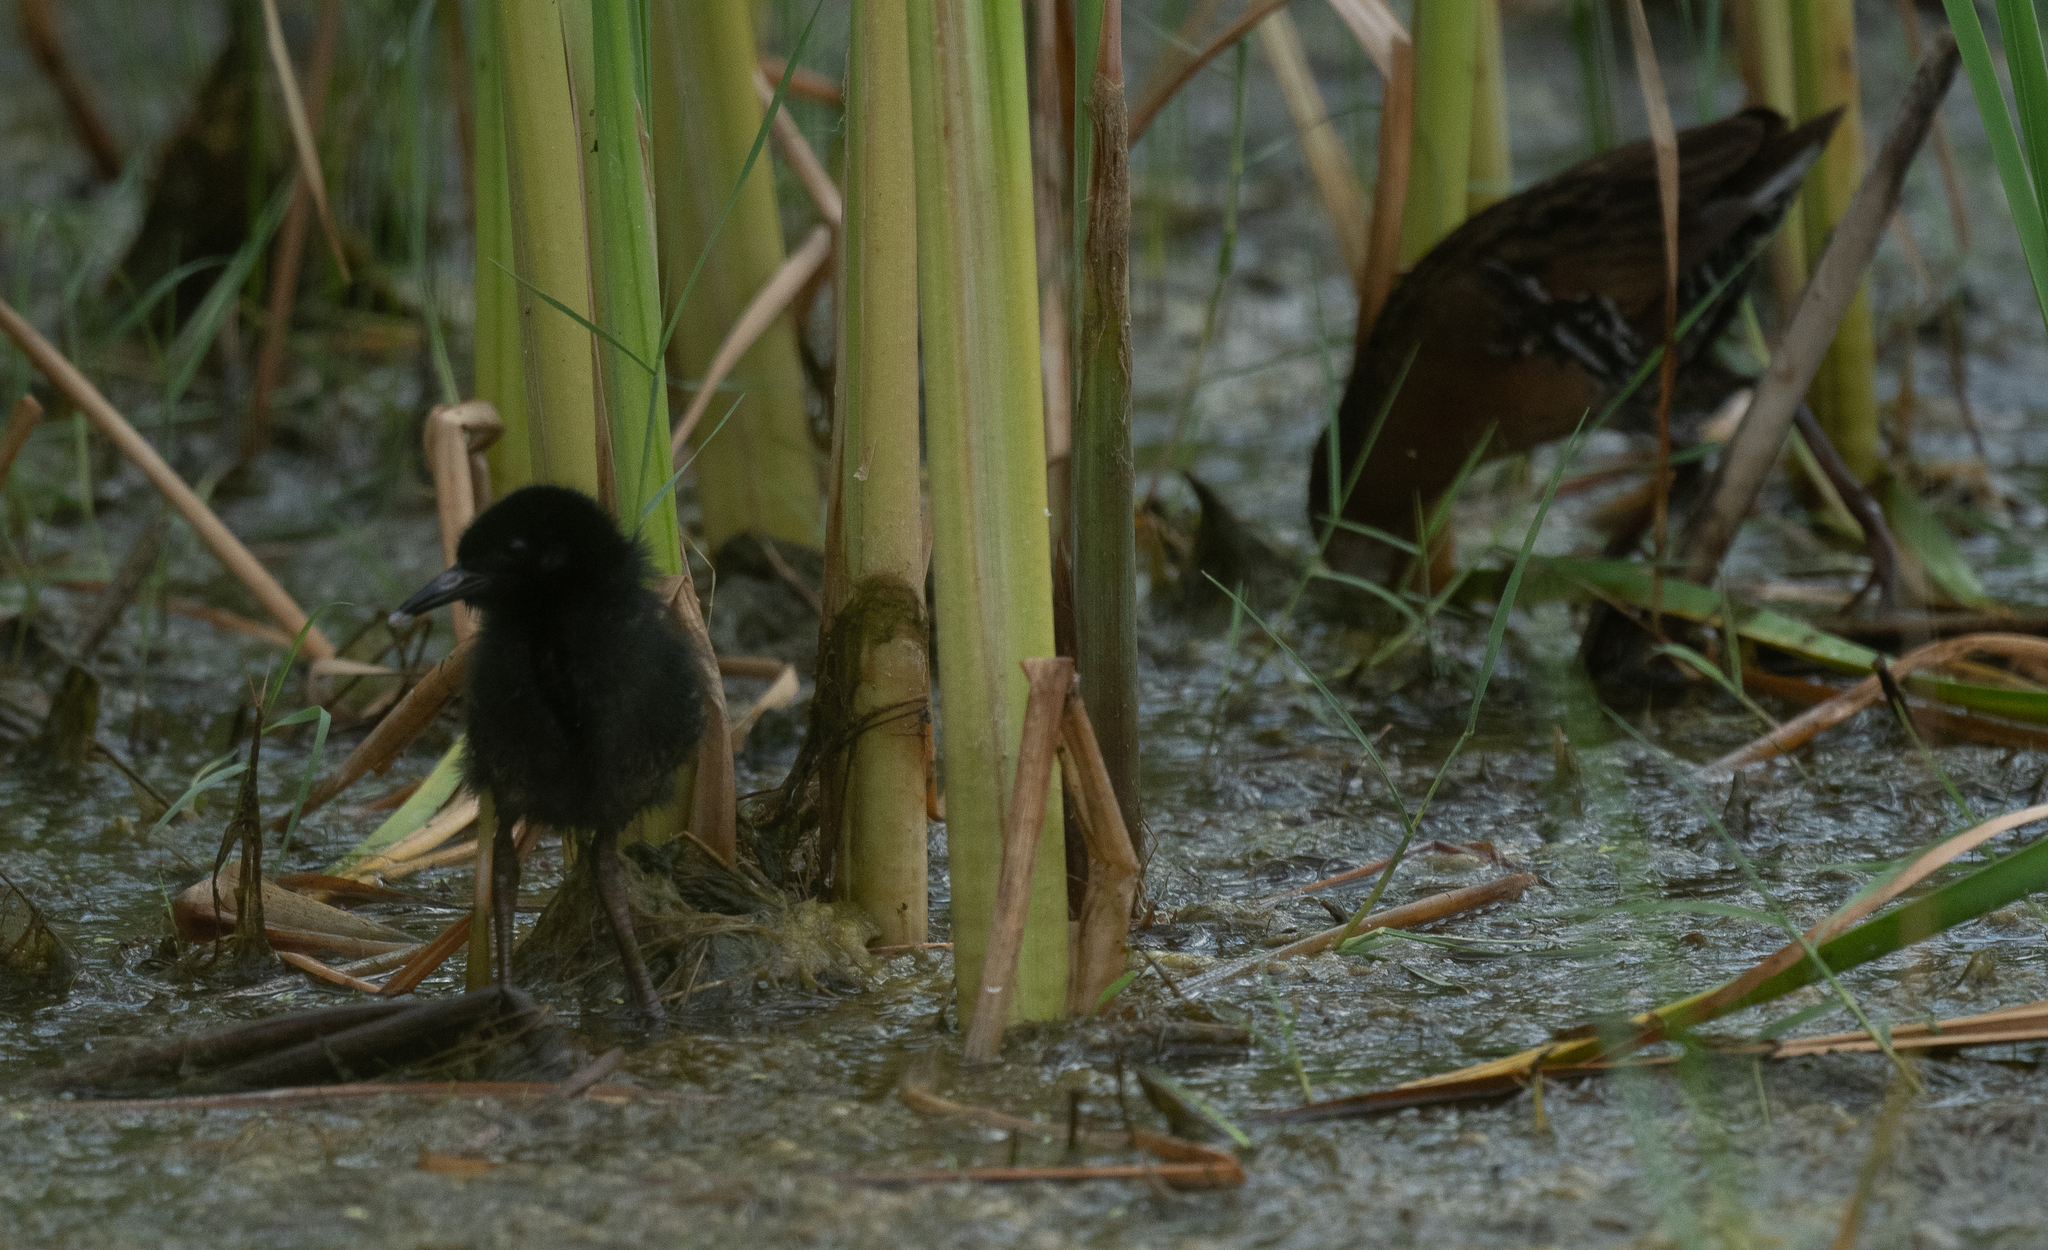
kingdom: Animalia
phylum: Chordata
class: Aves
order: Gruiformes
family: Rallidae
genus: Rallus
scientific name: Rallus limicola
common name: Virginia rail
